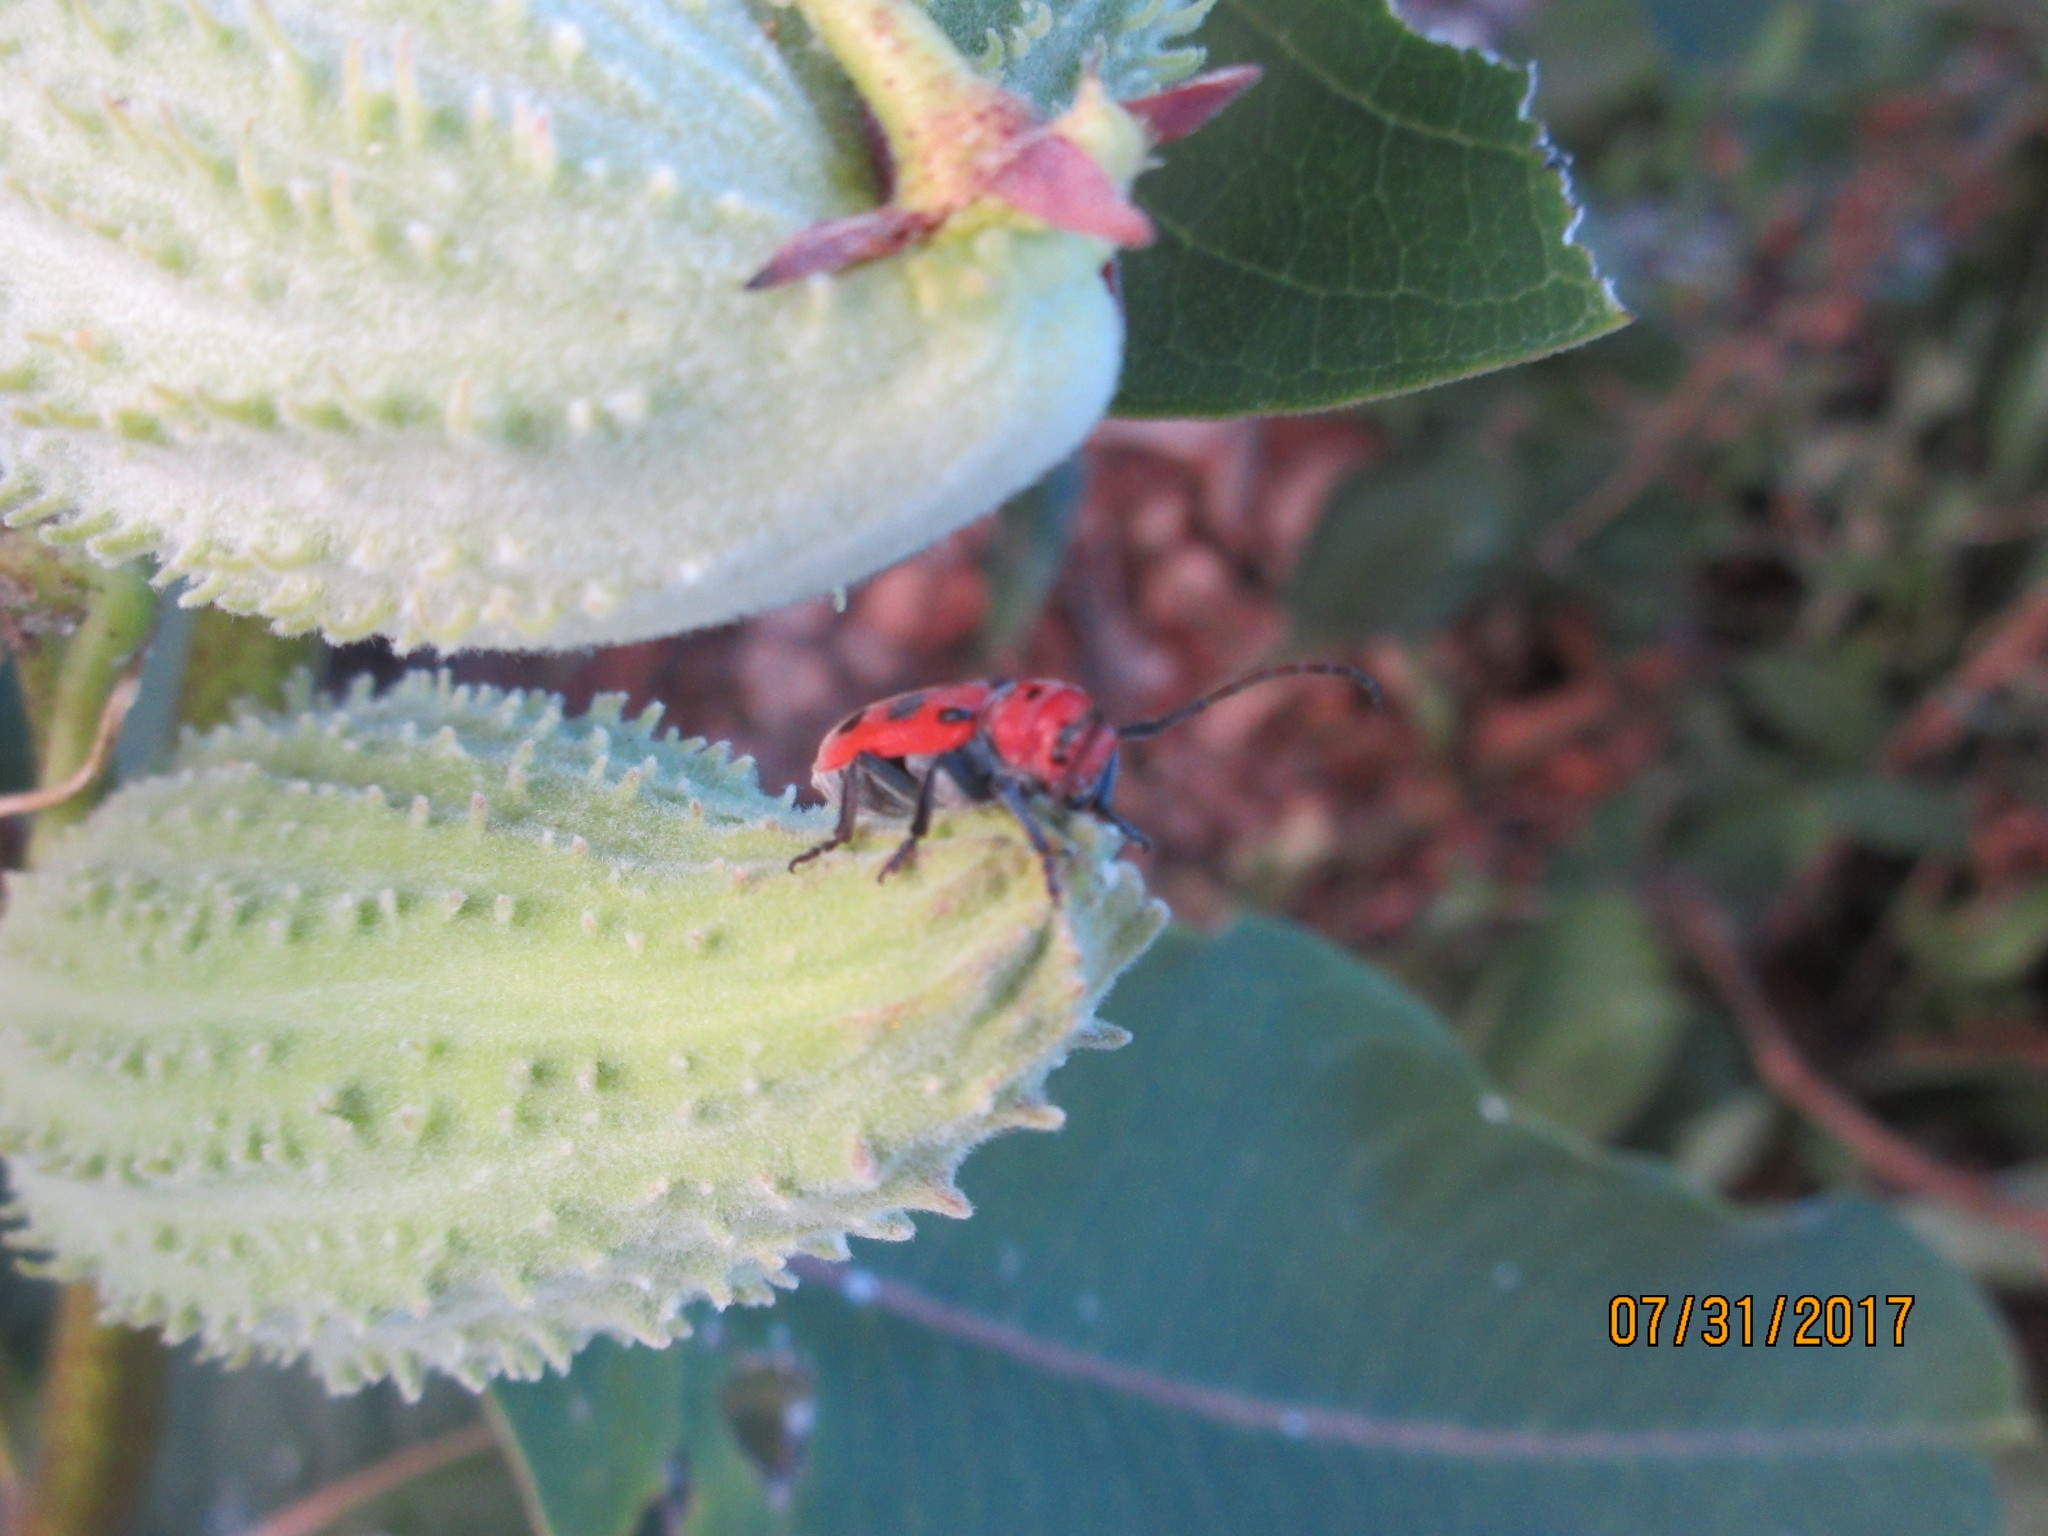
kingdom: Animalia
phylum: Arthropoda
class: Insecta
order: Coleoptera
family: Cerambycidae
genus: Tetraopes
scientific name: Tetraopes tetrophthalmus
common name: Red milkweed beetle
